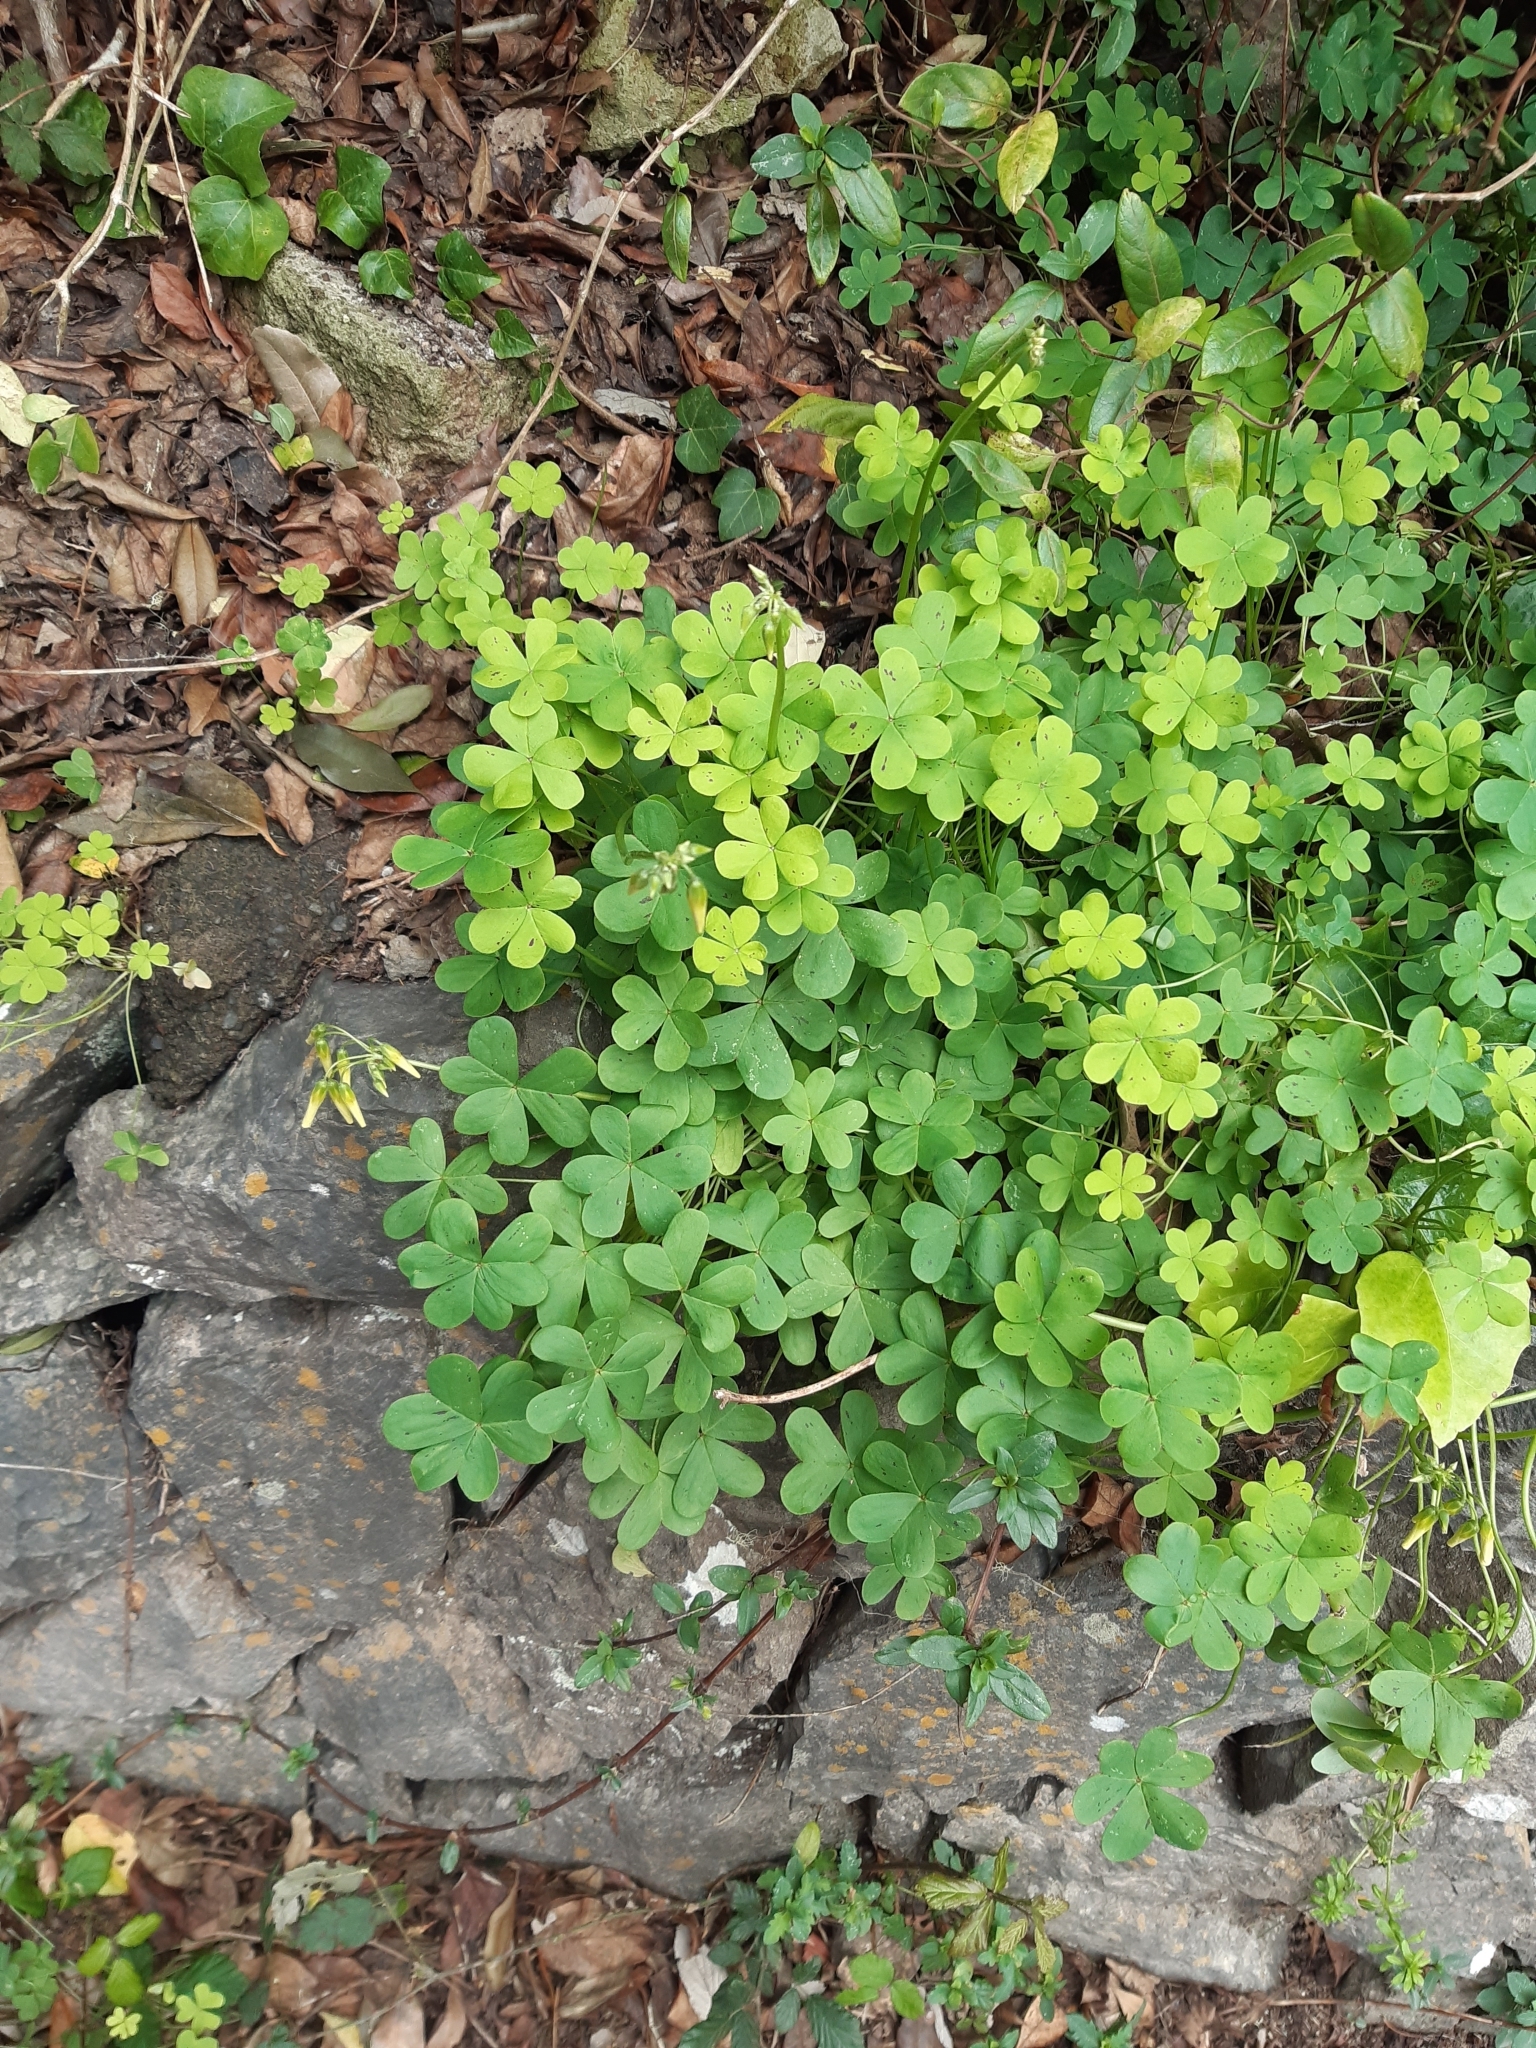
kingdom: Plantae
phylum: Tracheophyta
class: Magnoliopsida
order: Oxalidales
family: Oxalidaceae
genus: Oxalis
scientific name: Oxalis pes-caprae
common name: Bermuda-buttercup
